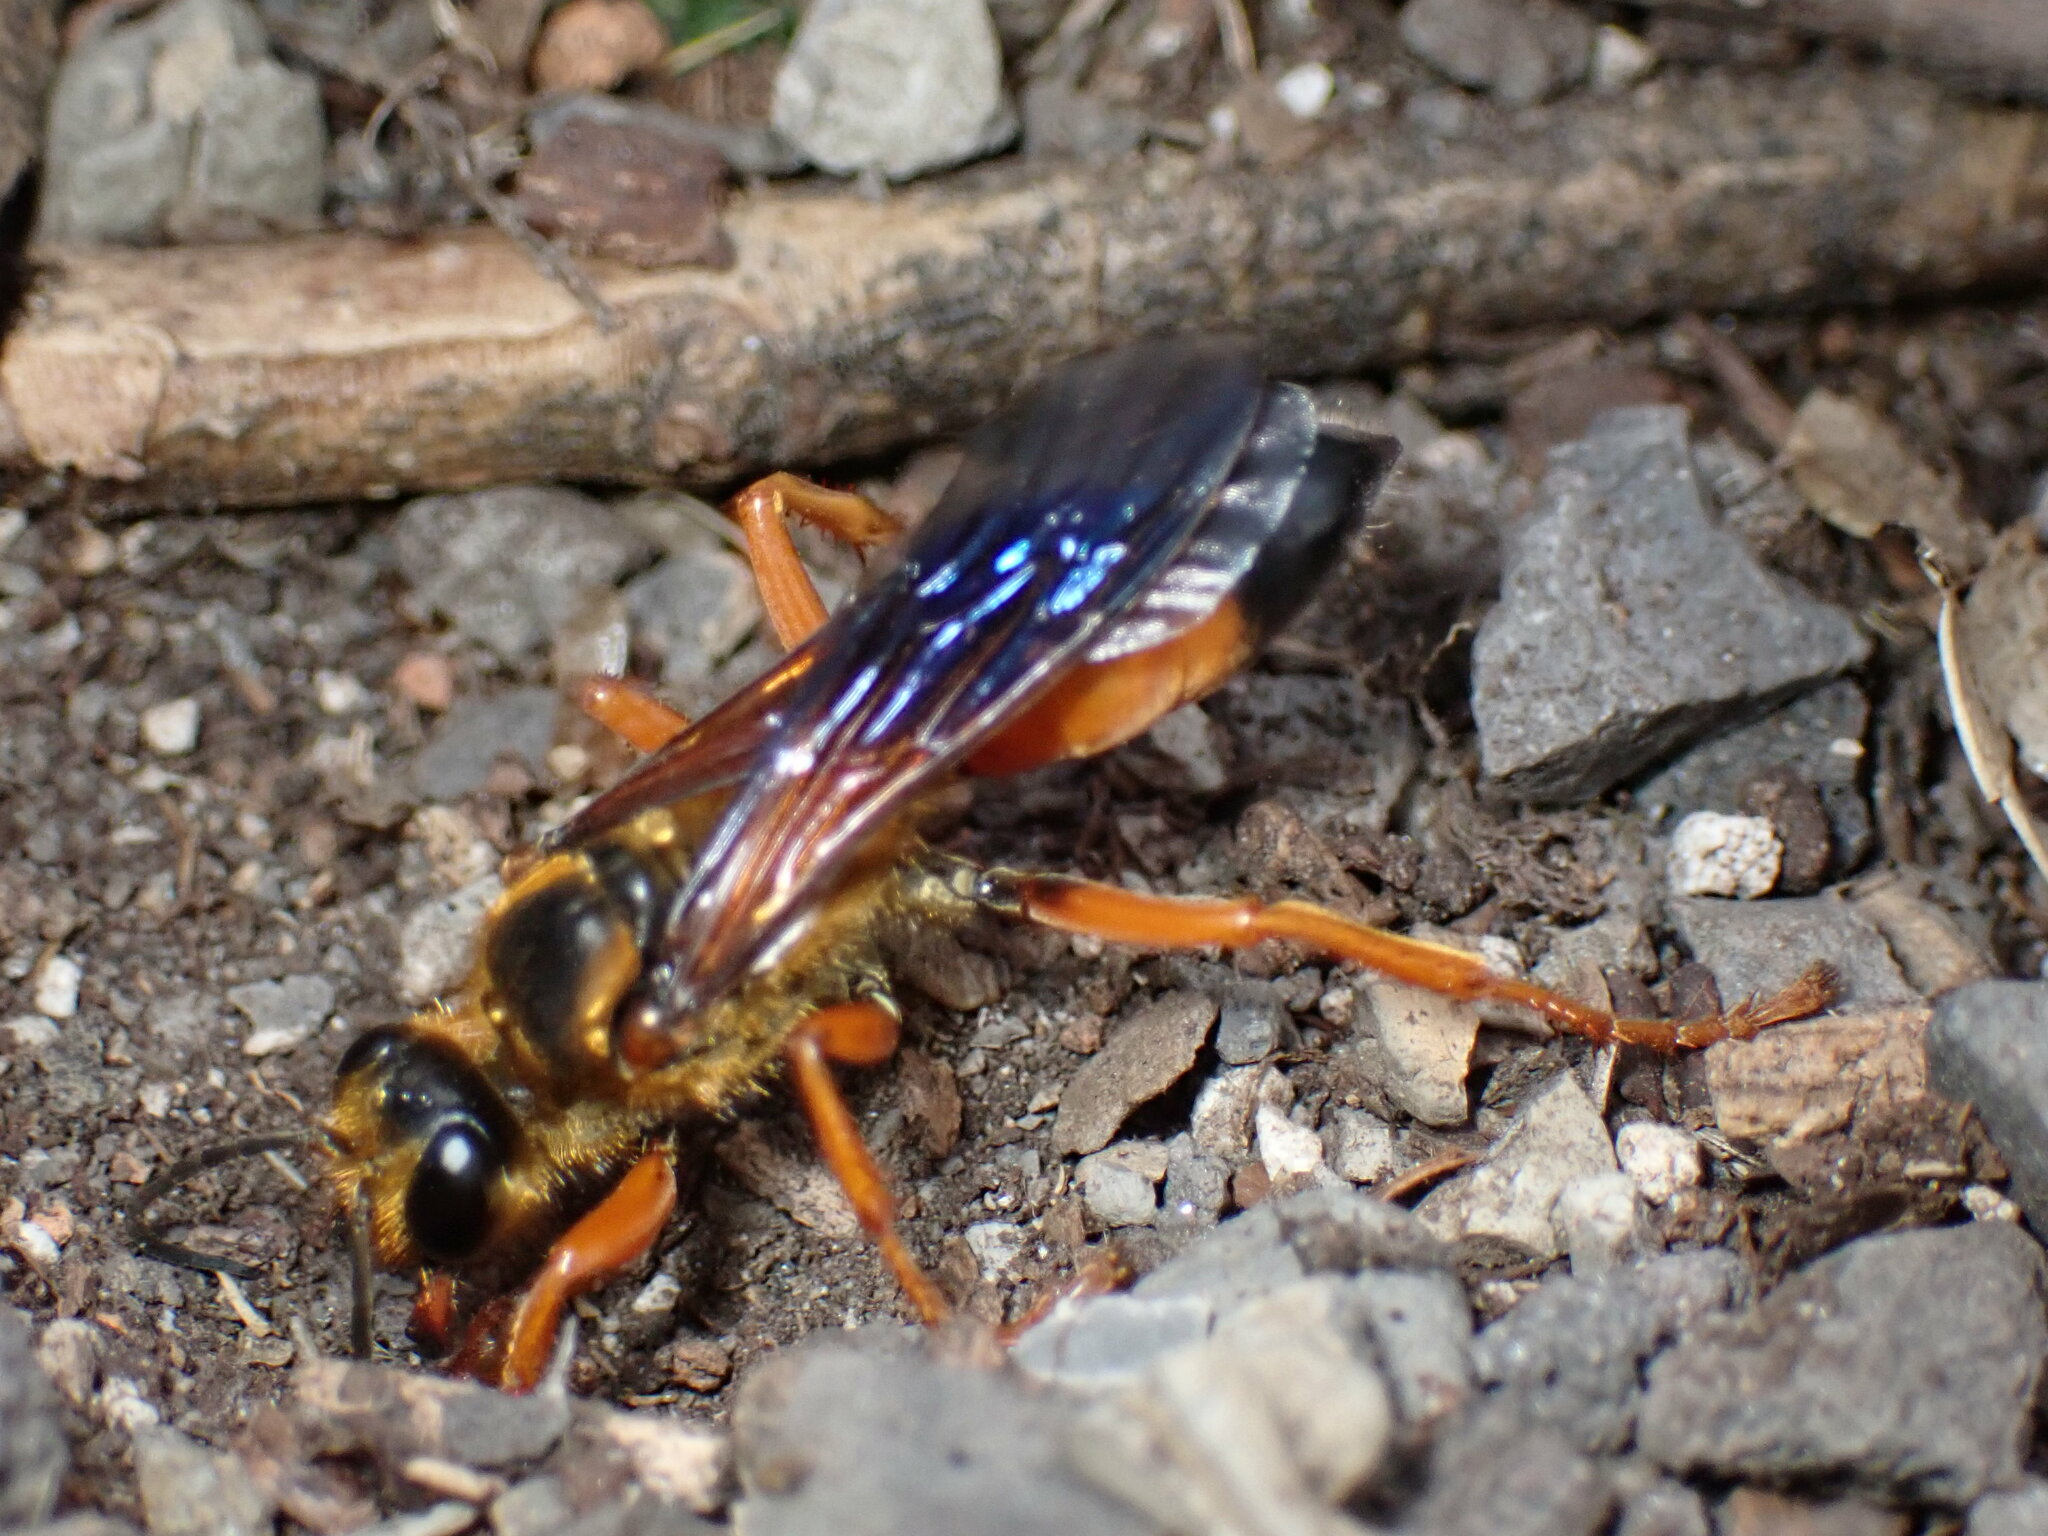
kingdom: Animalia
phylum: Arthropoda
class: Insecta
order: Hymenoptera
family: Sphecidae
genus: Sphex
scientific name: Sphex ichneumoneus
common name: Great golden digger wasp
